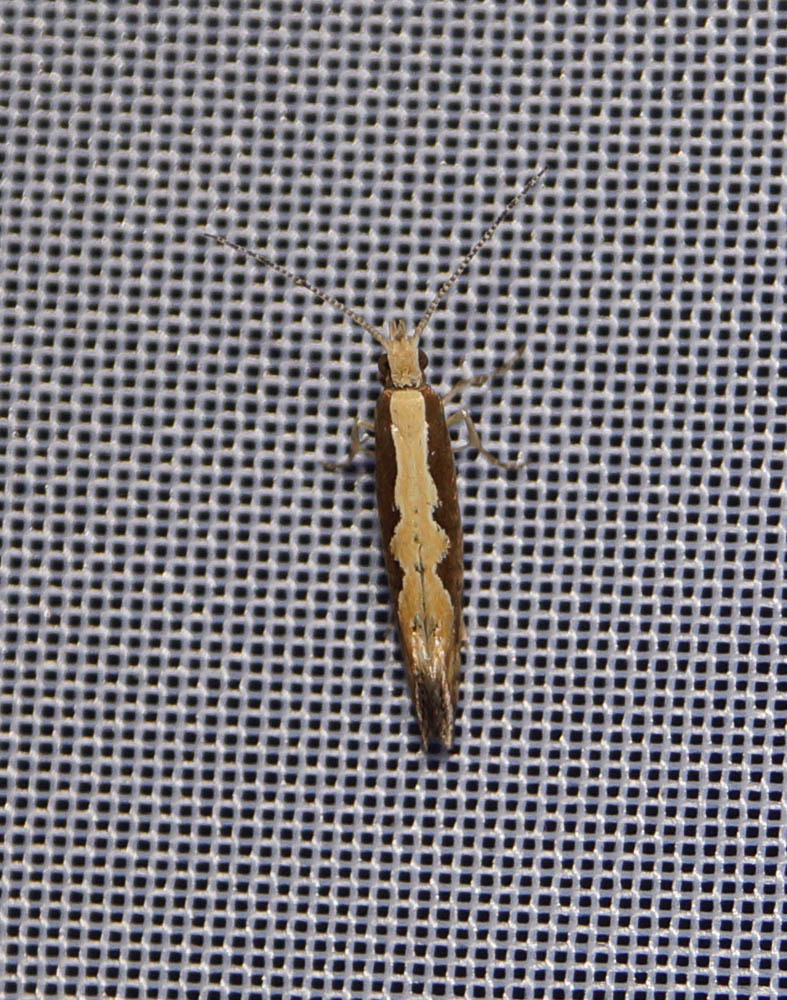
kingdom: Animalia
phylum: Arthropoda
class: Insecta
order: Lepidoptera
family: Plutellidae
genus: Plutella
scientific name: Plutella xylostella
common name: Diamond-back moth
